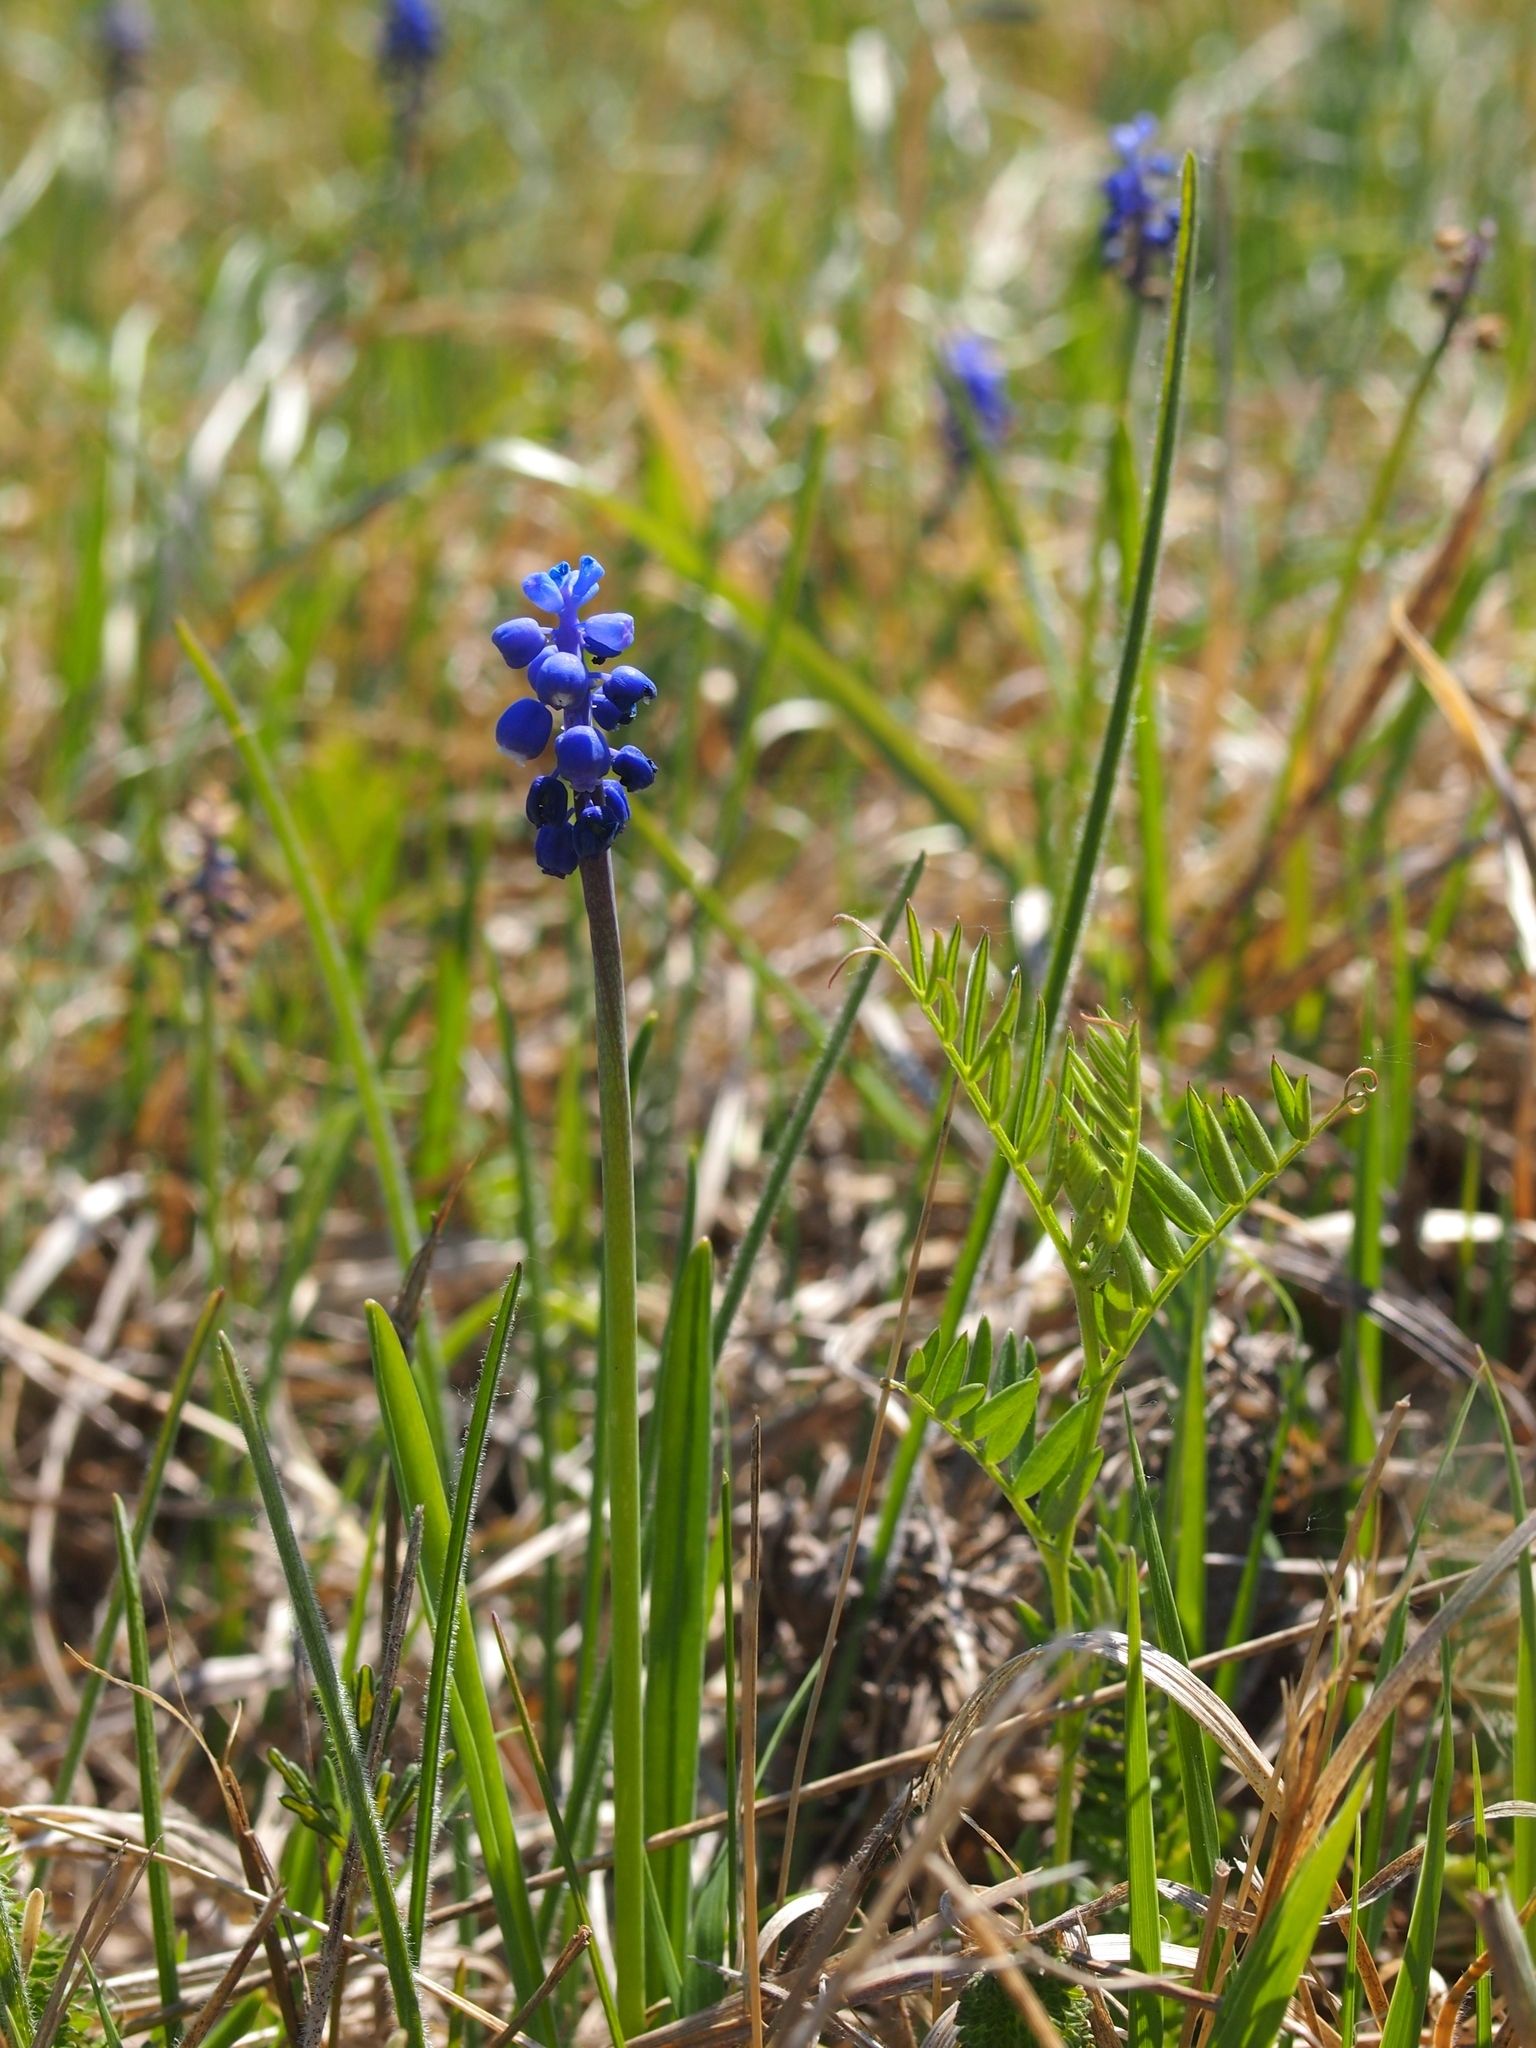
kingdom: Plantae
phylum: Tracheophyta
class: Liliopsida
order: Asparagales
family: Asparagaceae
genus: Muscari
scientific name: Muscari botryoides
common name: Compact grape-hyacinth
